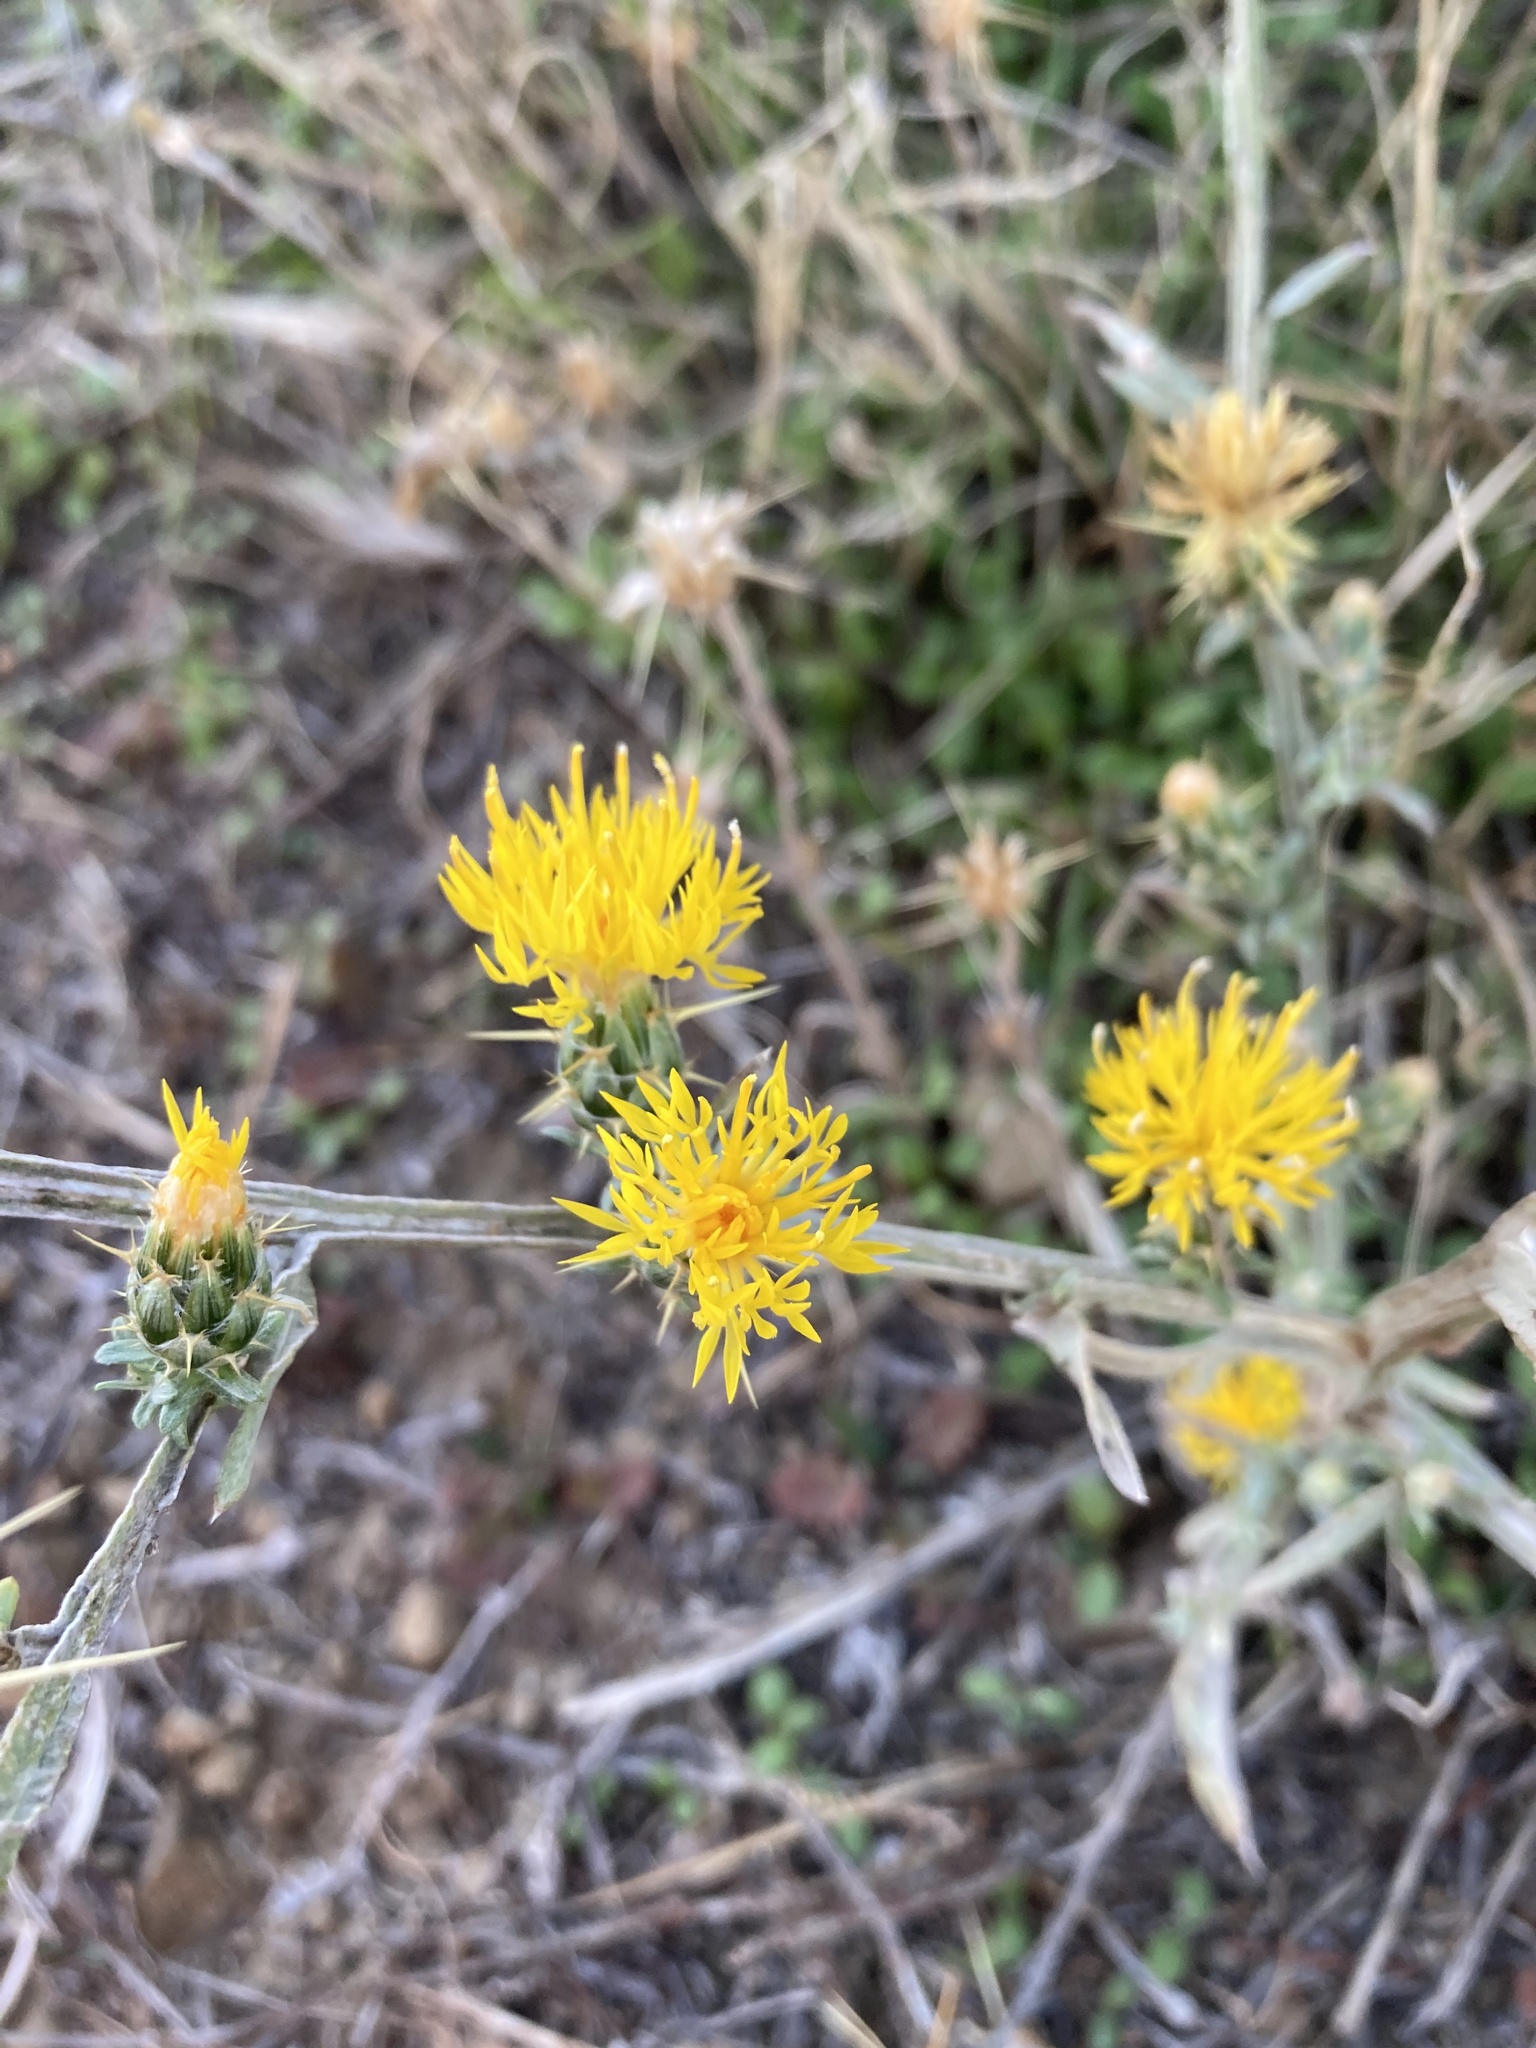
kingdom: Plantae
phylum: Tracheophyta
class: Magnoliopsida
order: Asterales
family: Asteraceae
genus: Centaurea
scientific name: Centaurea solstitialis
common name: Yellow star-thistle
